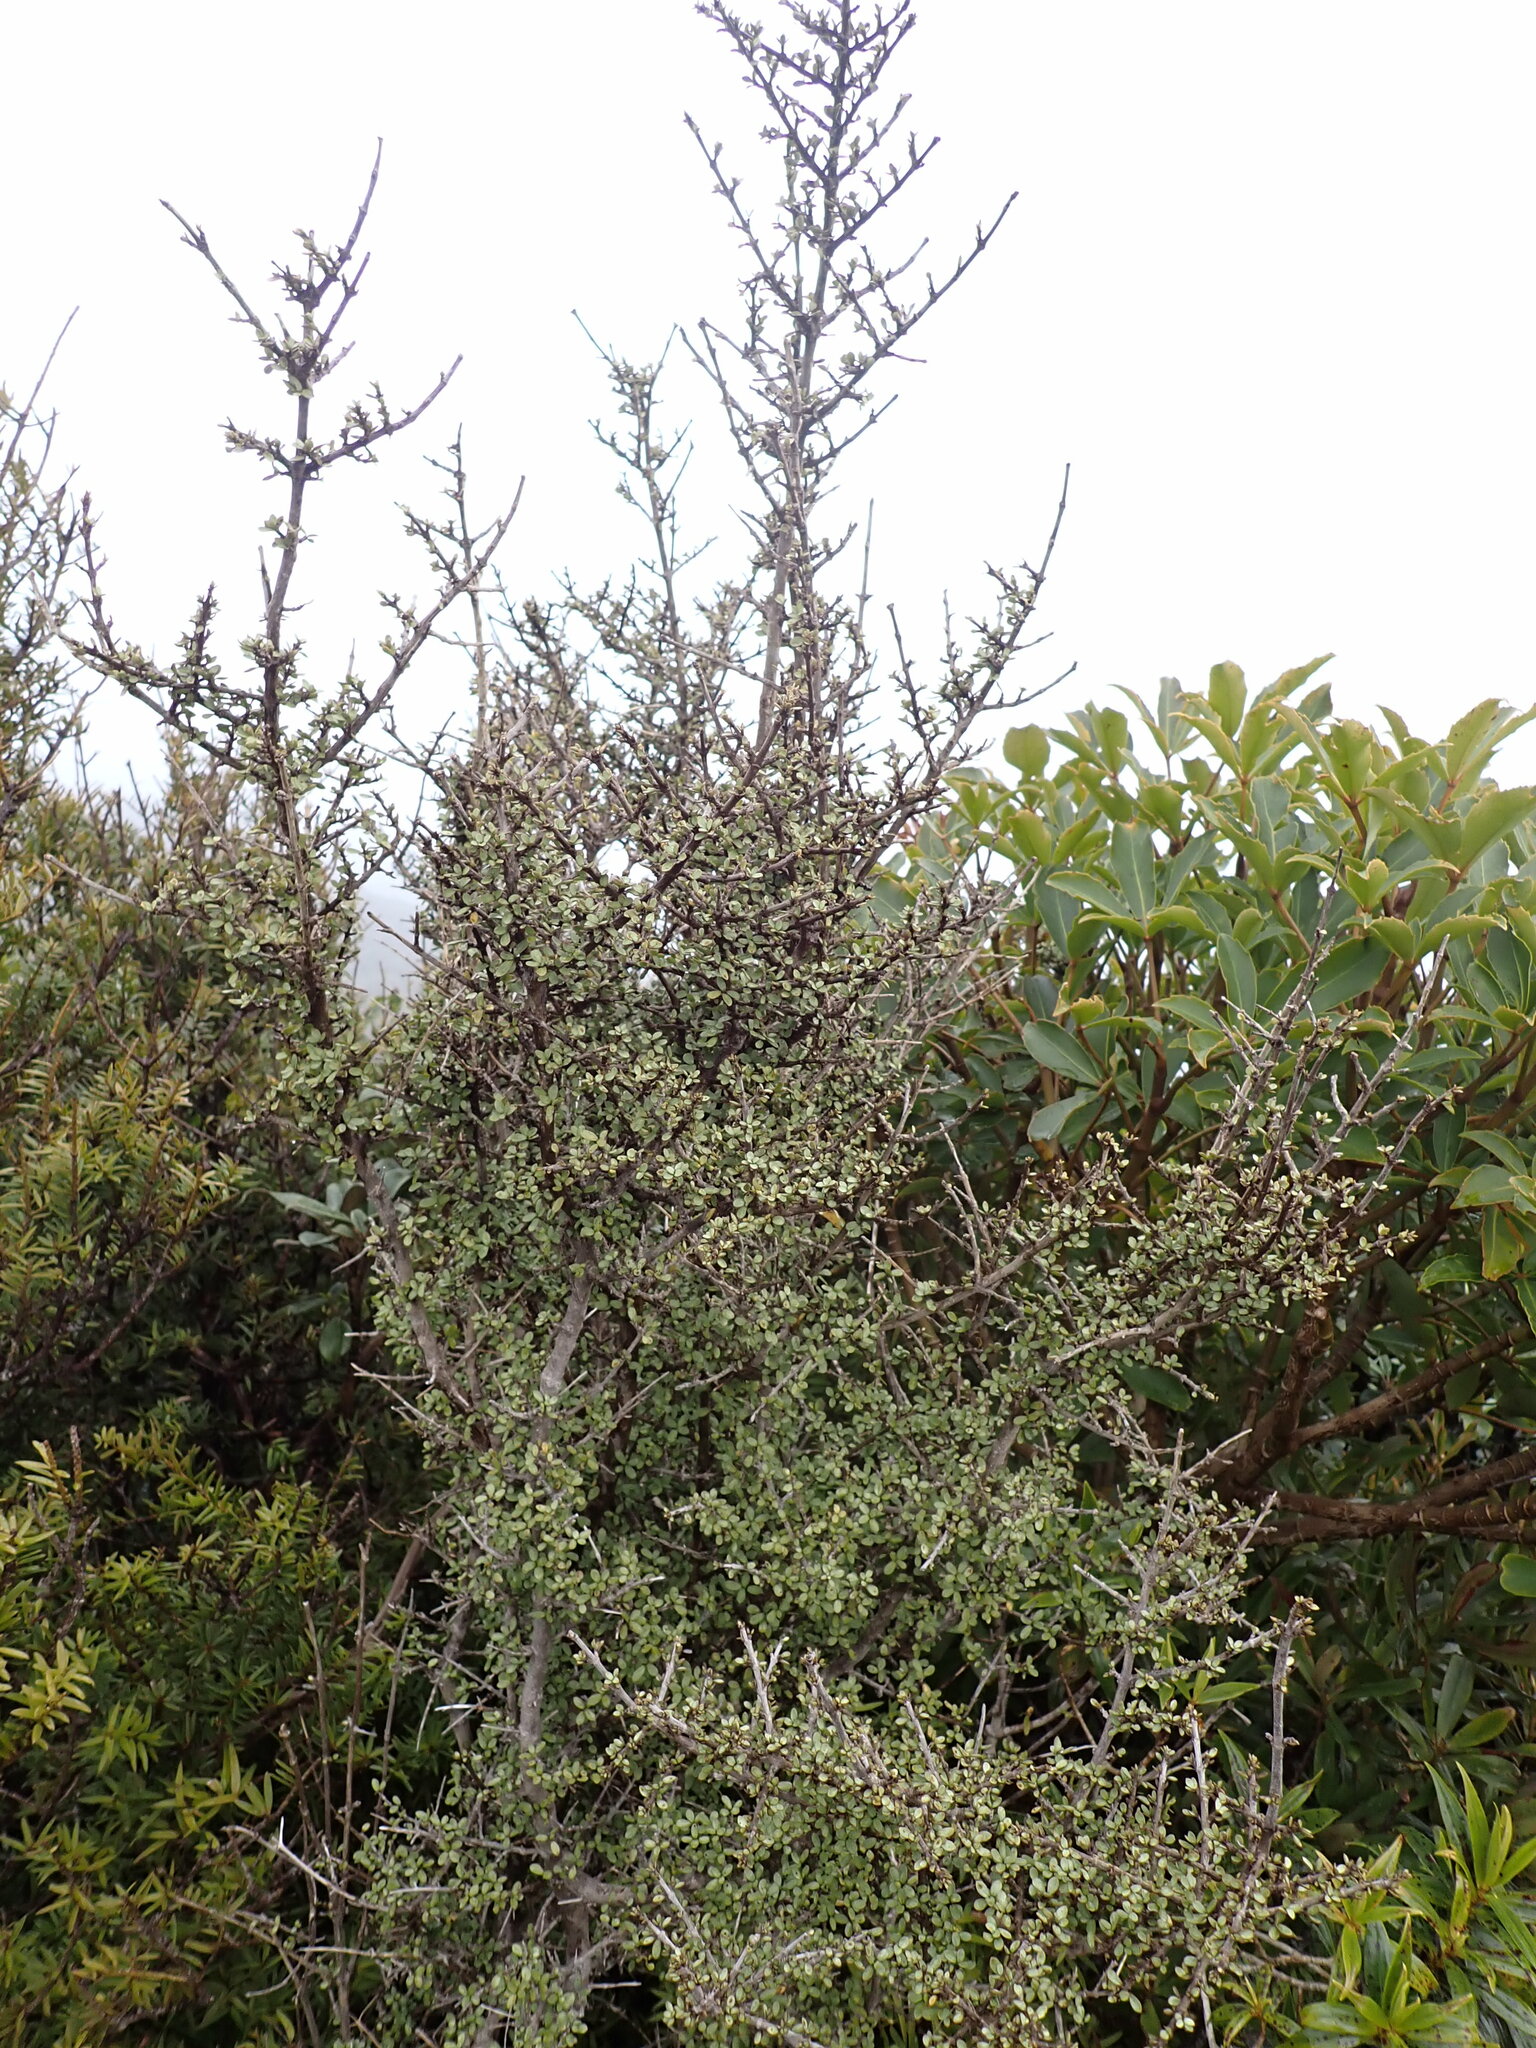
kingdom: Plantae
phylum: Tracheophyta
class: Magnoliopsida
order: Gentianales
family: Rubiaceae
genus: Coprosma
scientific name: Coprosma dumosa
